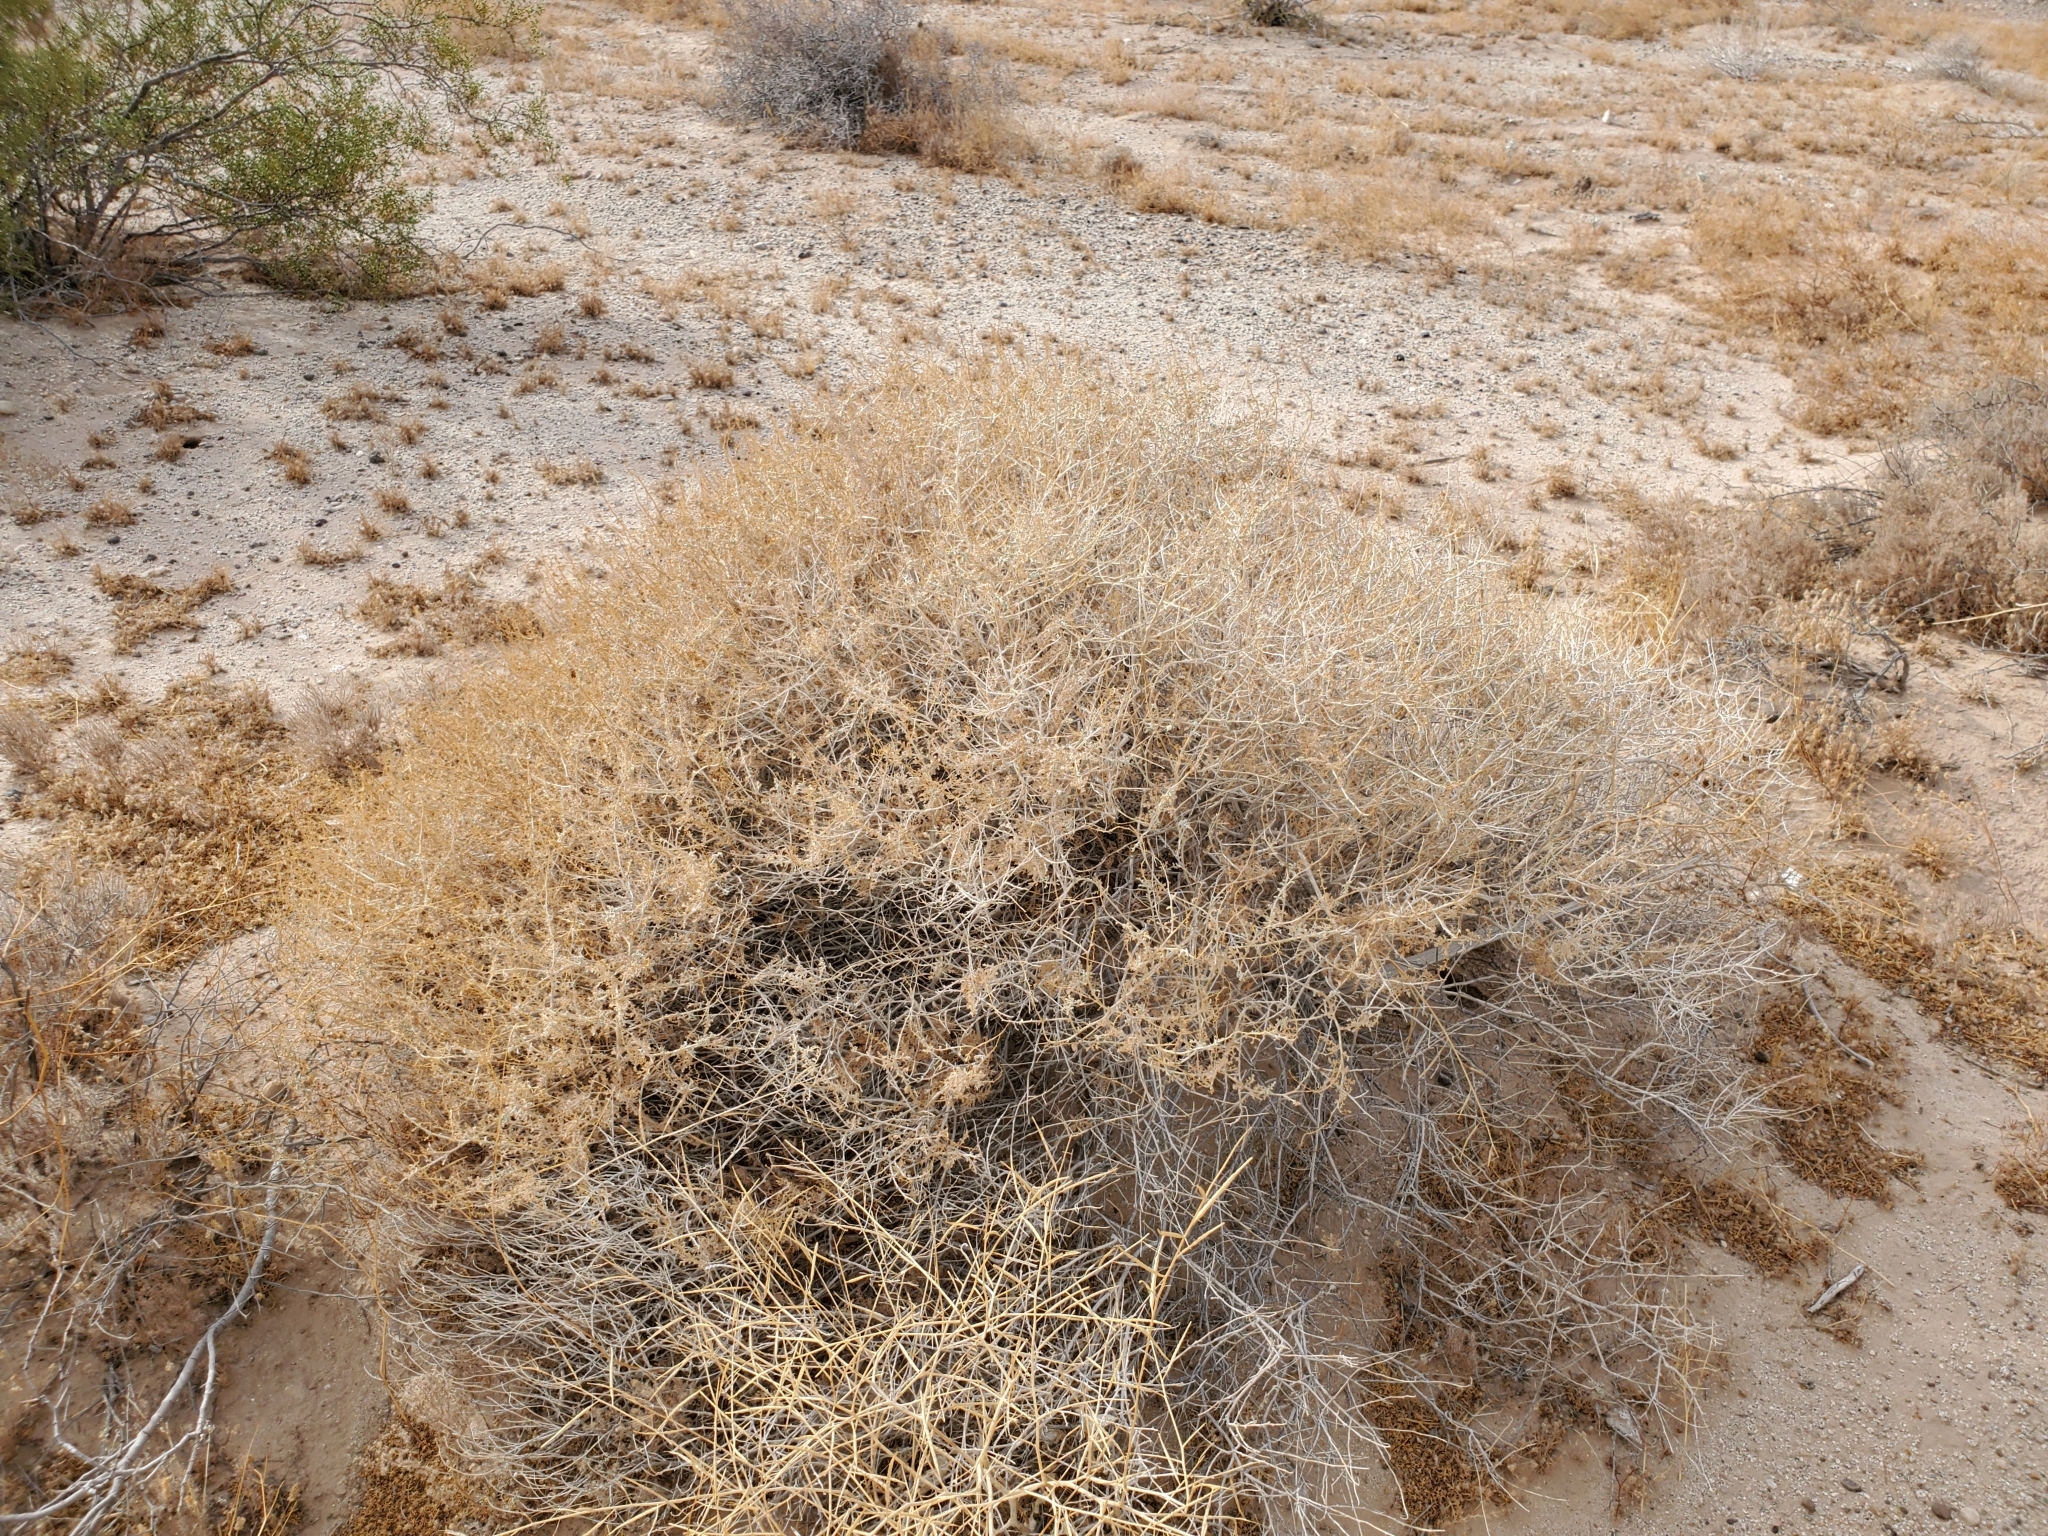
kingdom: Plantae
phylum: Tracheophyta
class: Magnoliopsida
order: Asterales
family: Asteraceae
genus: Ambrosia
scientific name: Ambrosia dumosa
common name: Bur-sage
